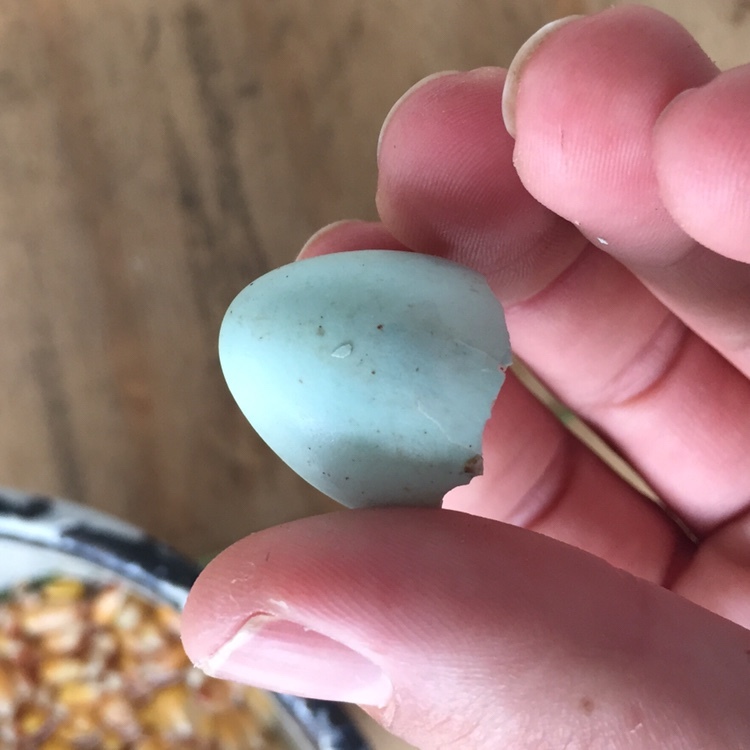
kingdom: Animalia
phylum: Chordata
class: Aves
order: Passeriformes
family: Sturnidae
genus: Sturnus
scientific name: Sturnus vulgaris
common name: Common starling
